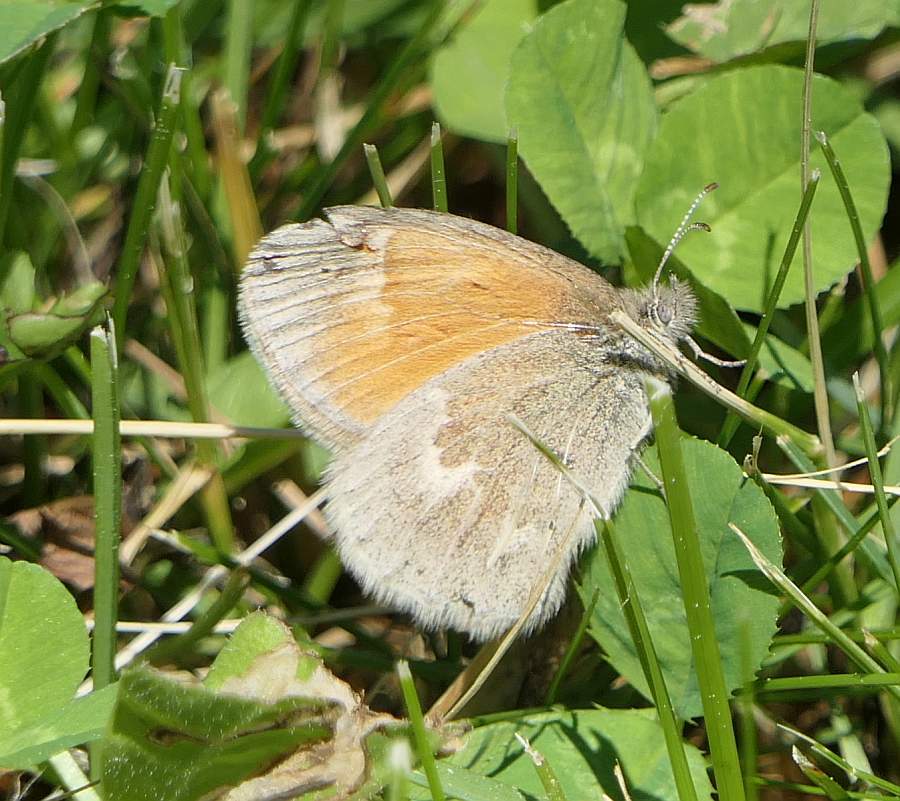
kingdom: Animalia
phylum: Arthropoda
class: Insecta
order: Lepidoptera
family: Nymphalidae
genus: Coenonympha
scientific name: Coenonympha california
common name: Common ringlet
